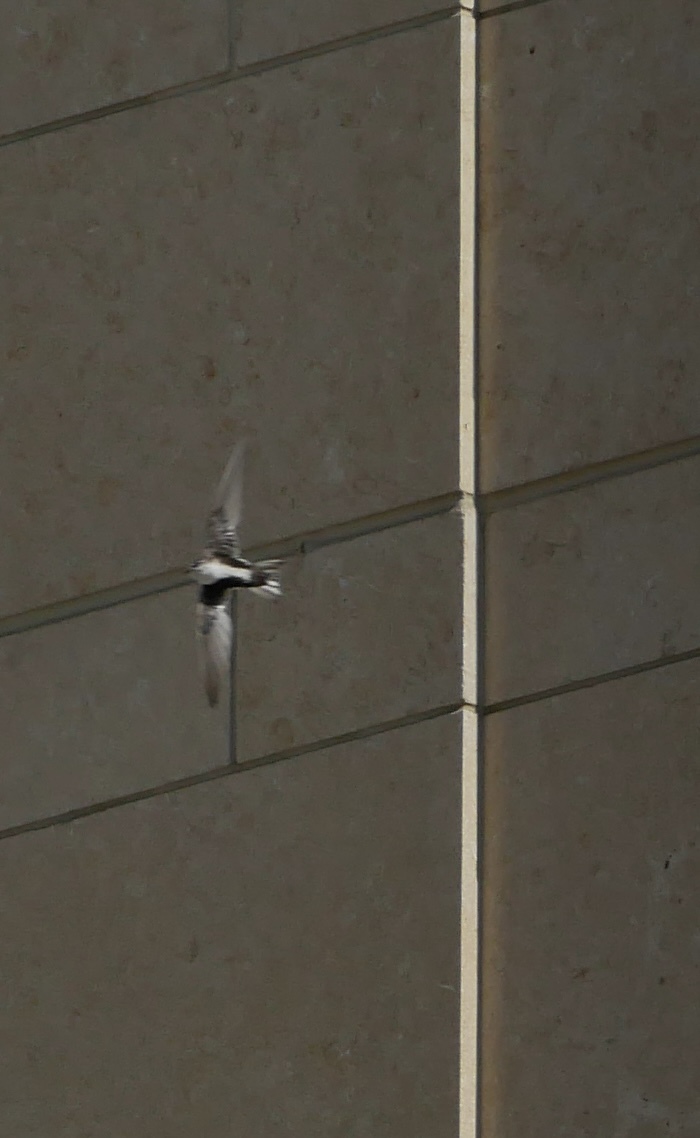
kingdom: Animalia
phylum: Chordata
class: Aves
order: Apodiformes
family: Apodidae
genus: Aeronautes
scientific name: Aeronautes saxatalis
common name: White-throated swift
